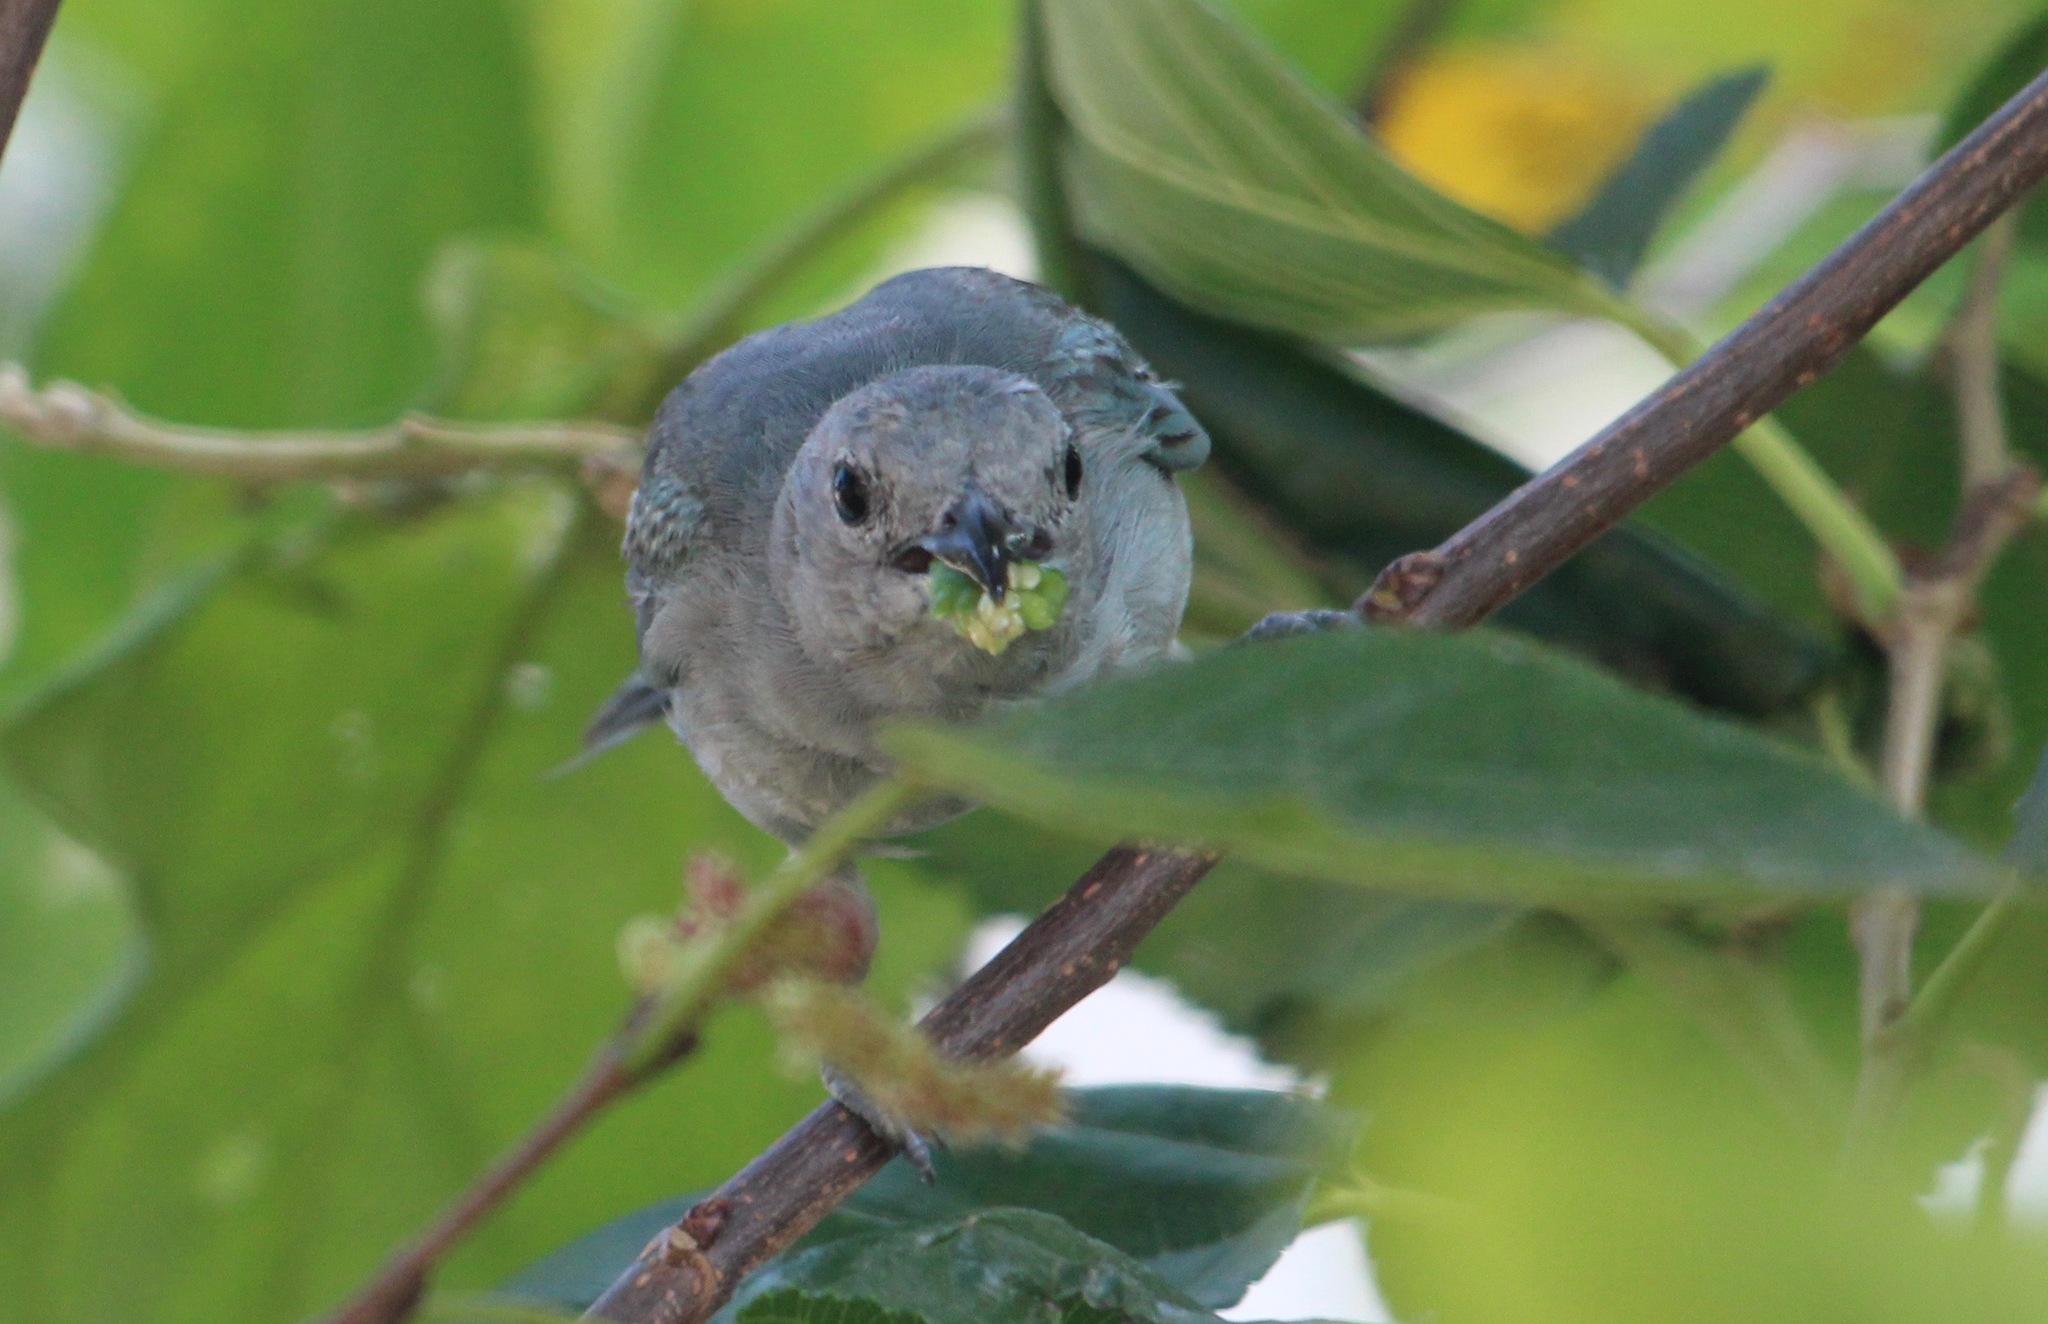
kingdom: Animalia
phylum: Chordata
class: Aves
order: Passeriformes
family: Thraupidae
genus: Thraupis
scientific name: Thraupis sayaca
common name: Sayaca tanager
